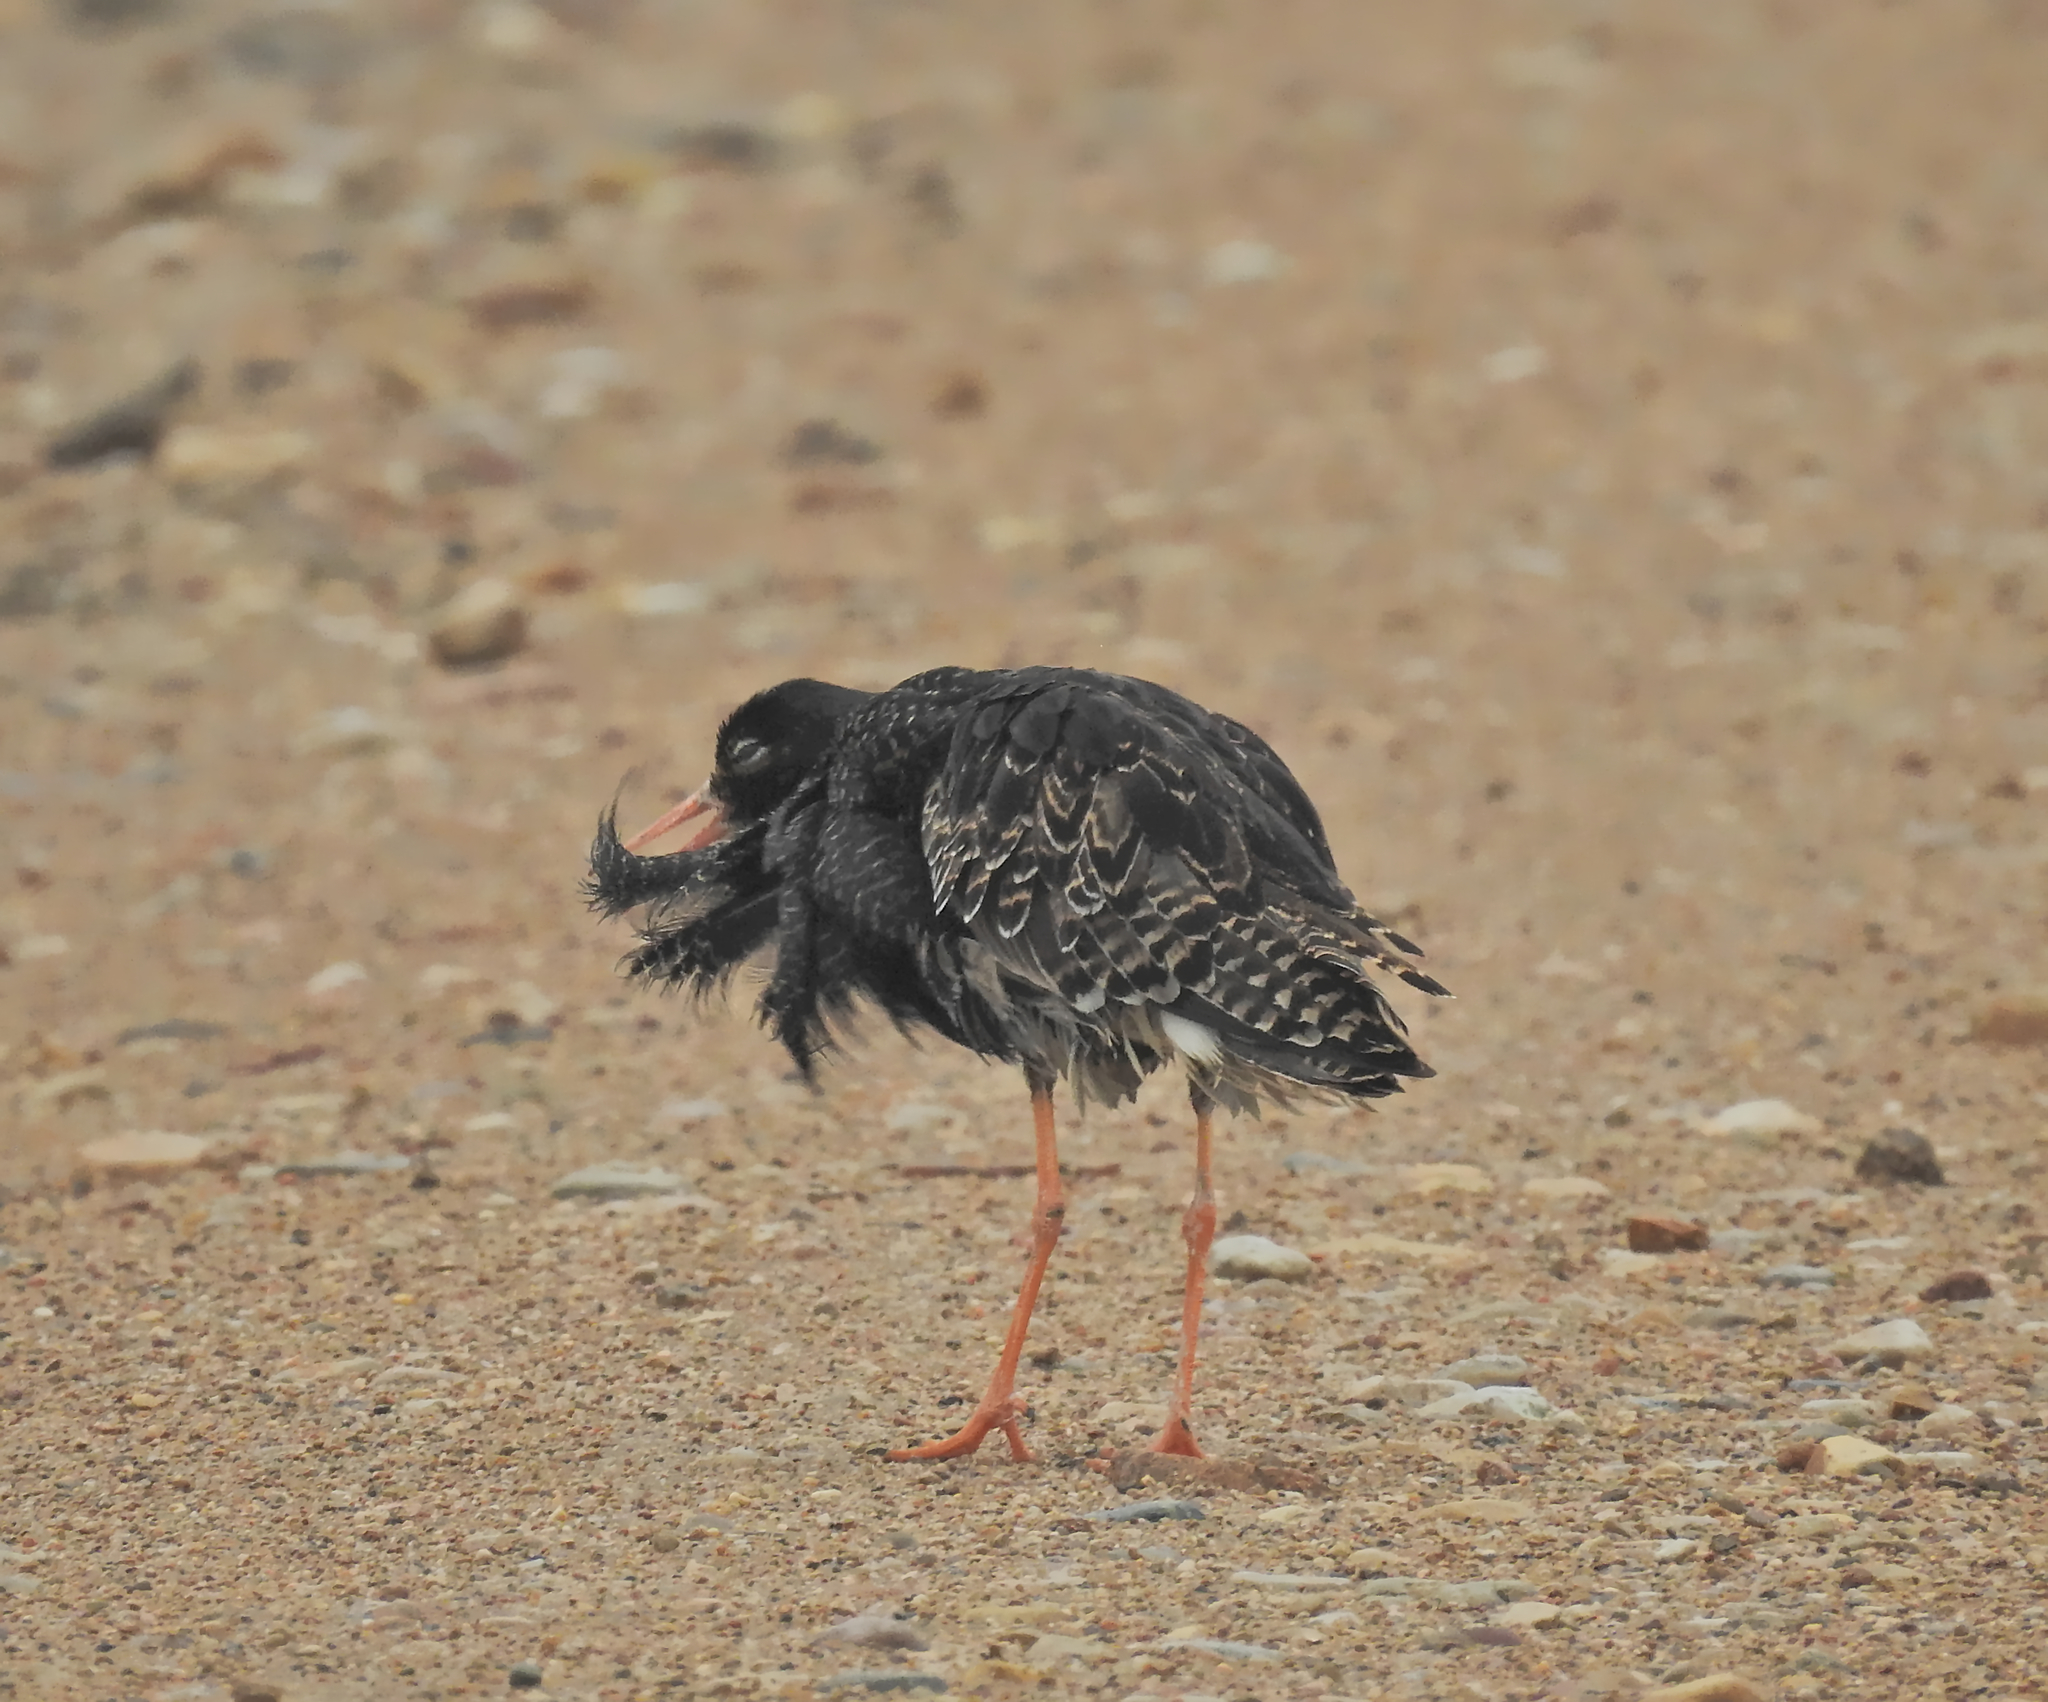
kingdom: Animalia
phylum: Chordata
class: Aves
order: Charadriiformes
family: Scolopacidae
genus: Calidris
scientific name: Calidris pugnax
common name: Ruff
